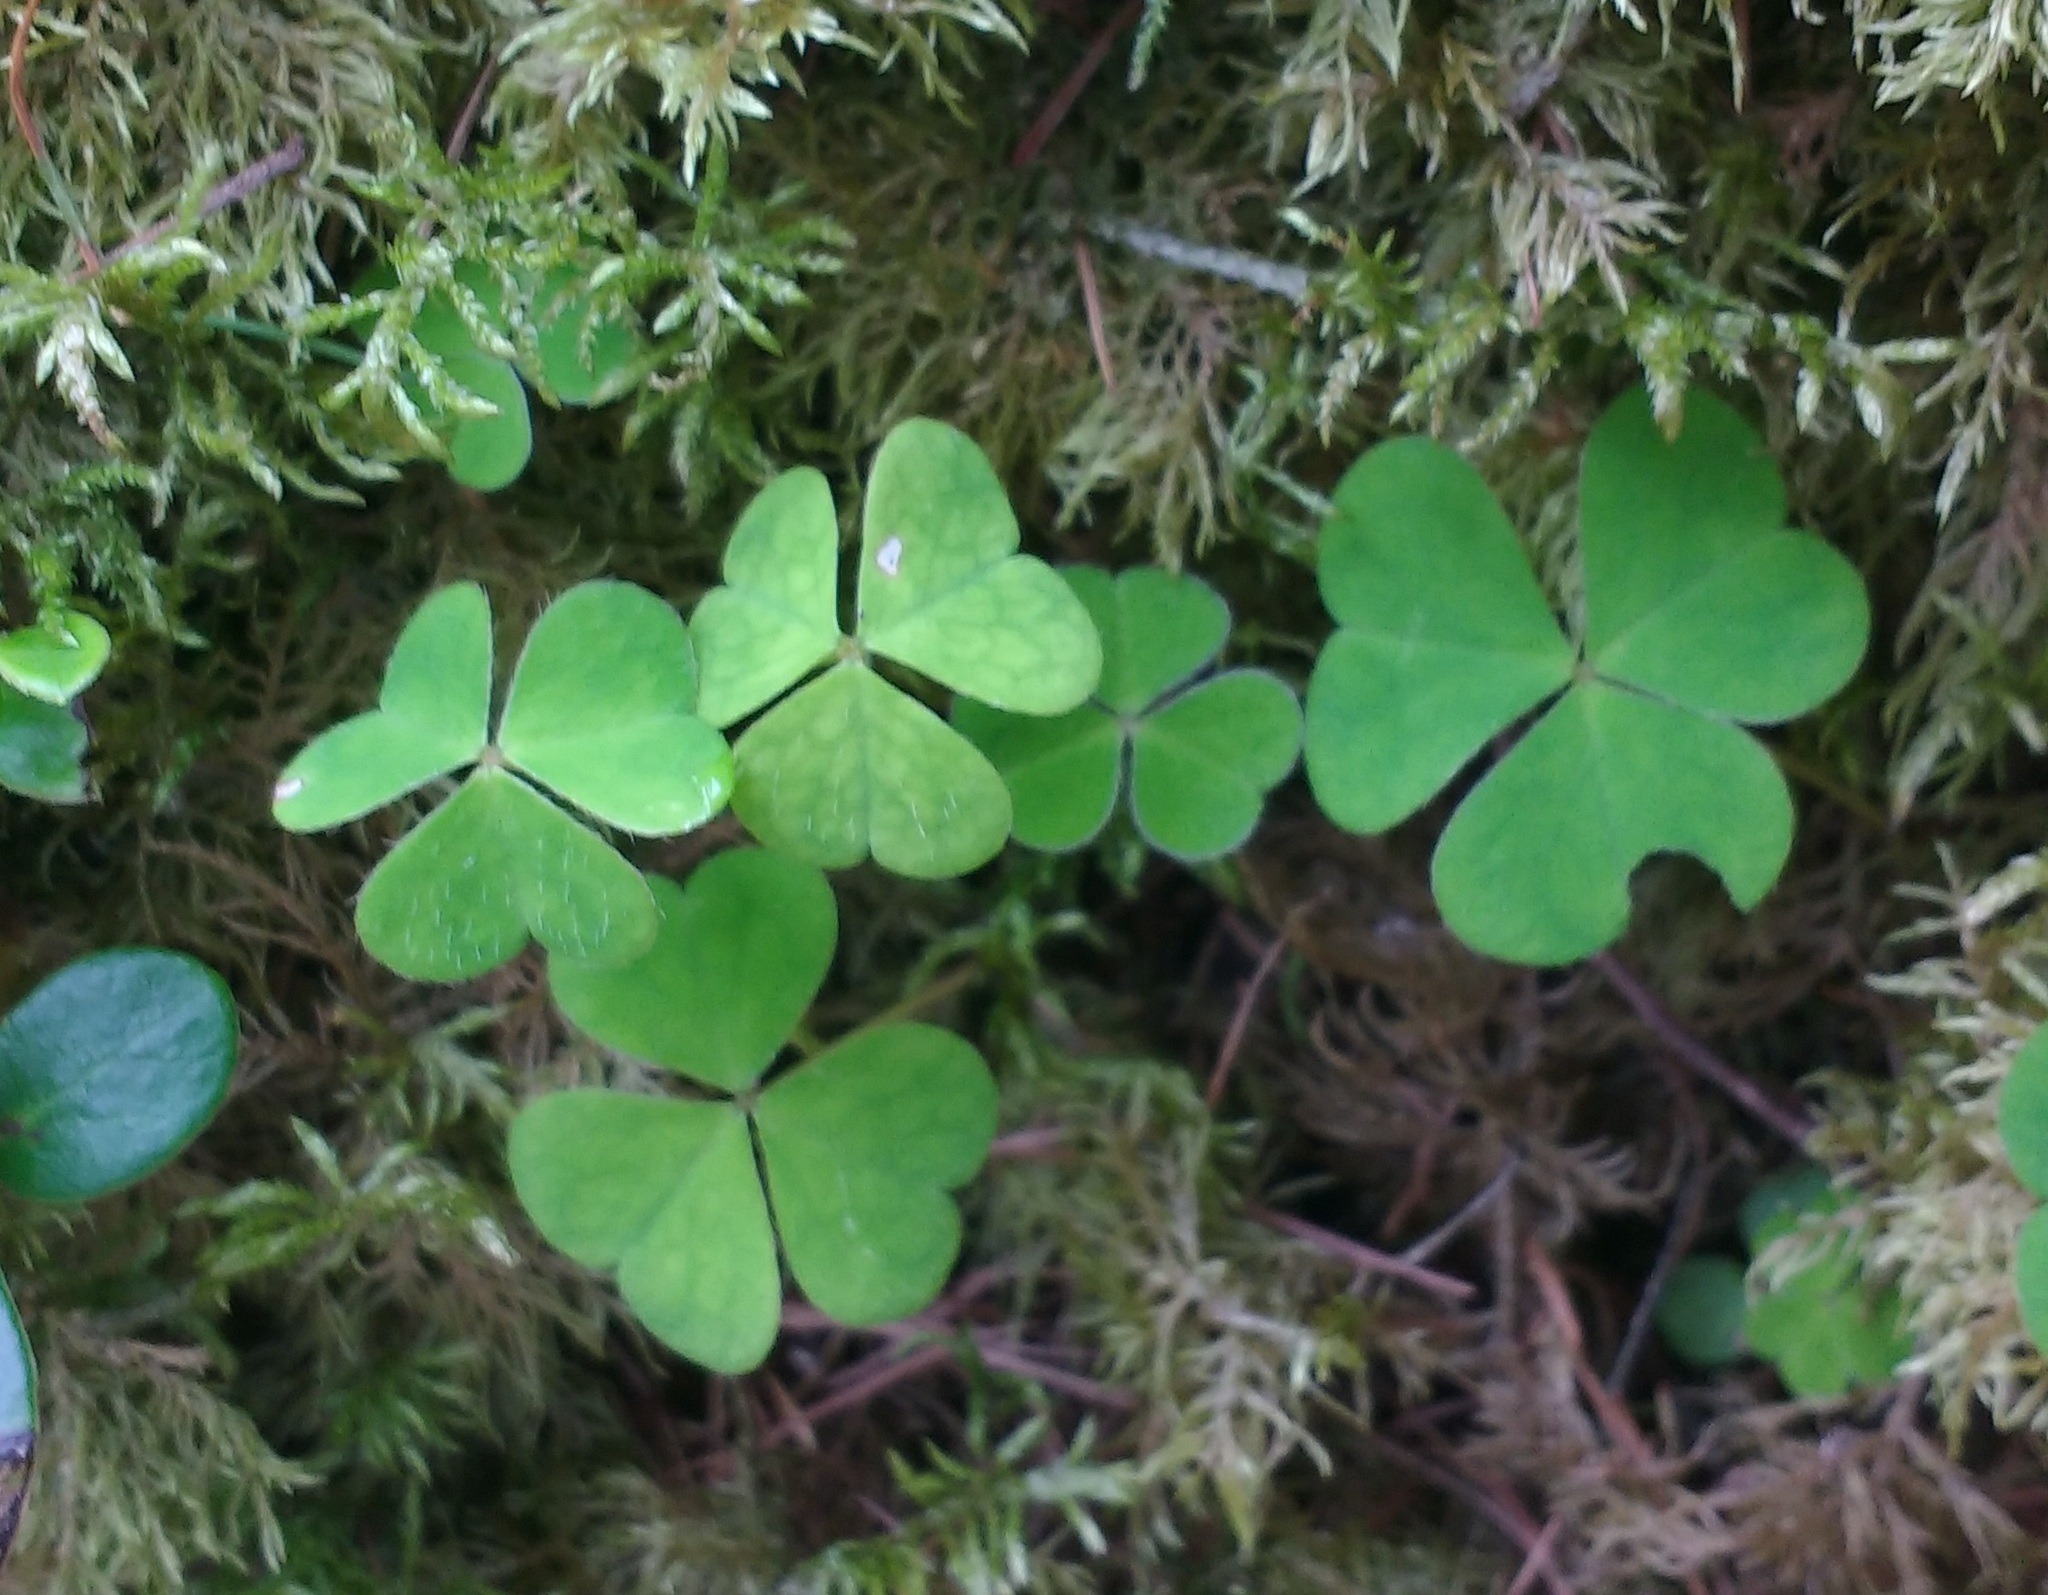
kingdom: Plantae
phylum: Tracheophyta
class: Magnoliopsida
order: Oxalidales
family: Oxalidaceae
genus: Oxalis
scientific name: Oxalis acetosella
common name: Wood-sorrel
